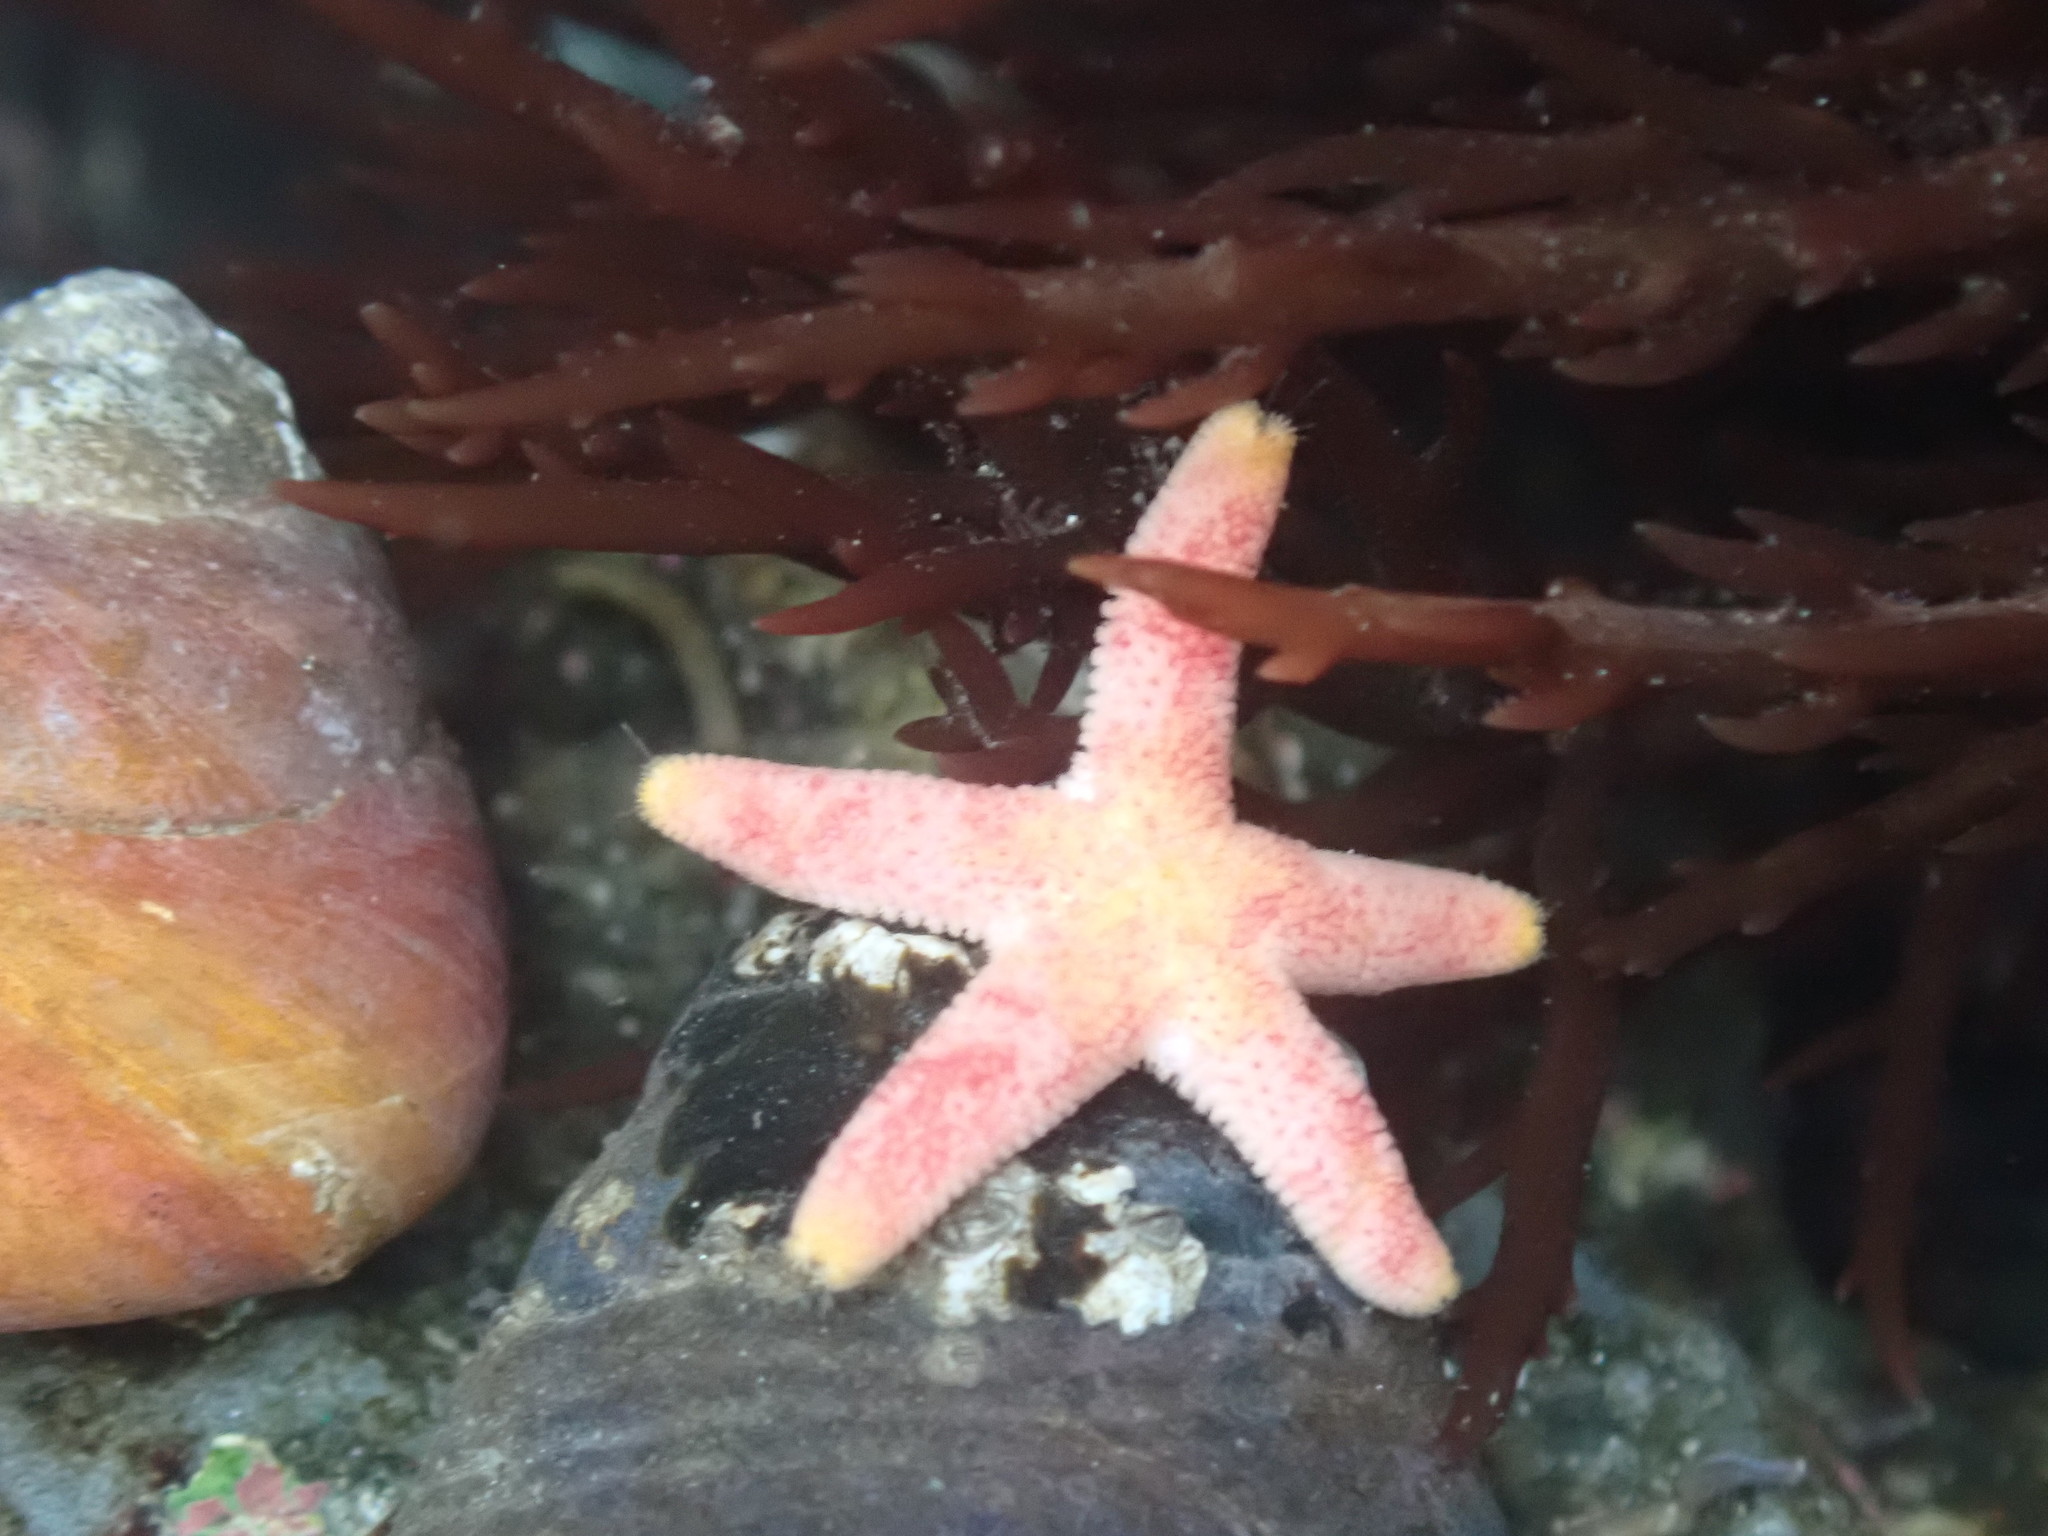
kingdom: Animalia
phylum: Echinodermata
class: Asteroidea
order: Spinulosida
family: Echinasteridae
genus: Henricia
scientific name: Henricia pumila
